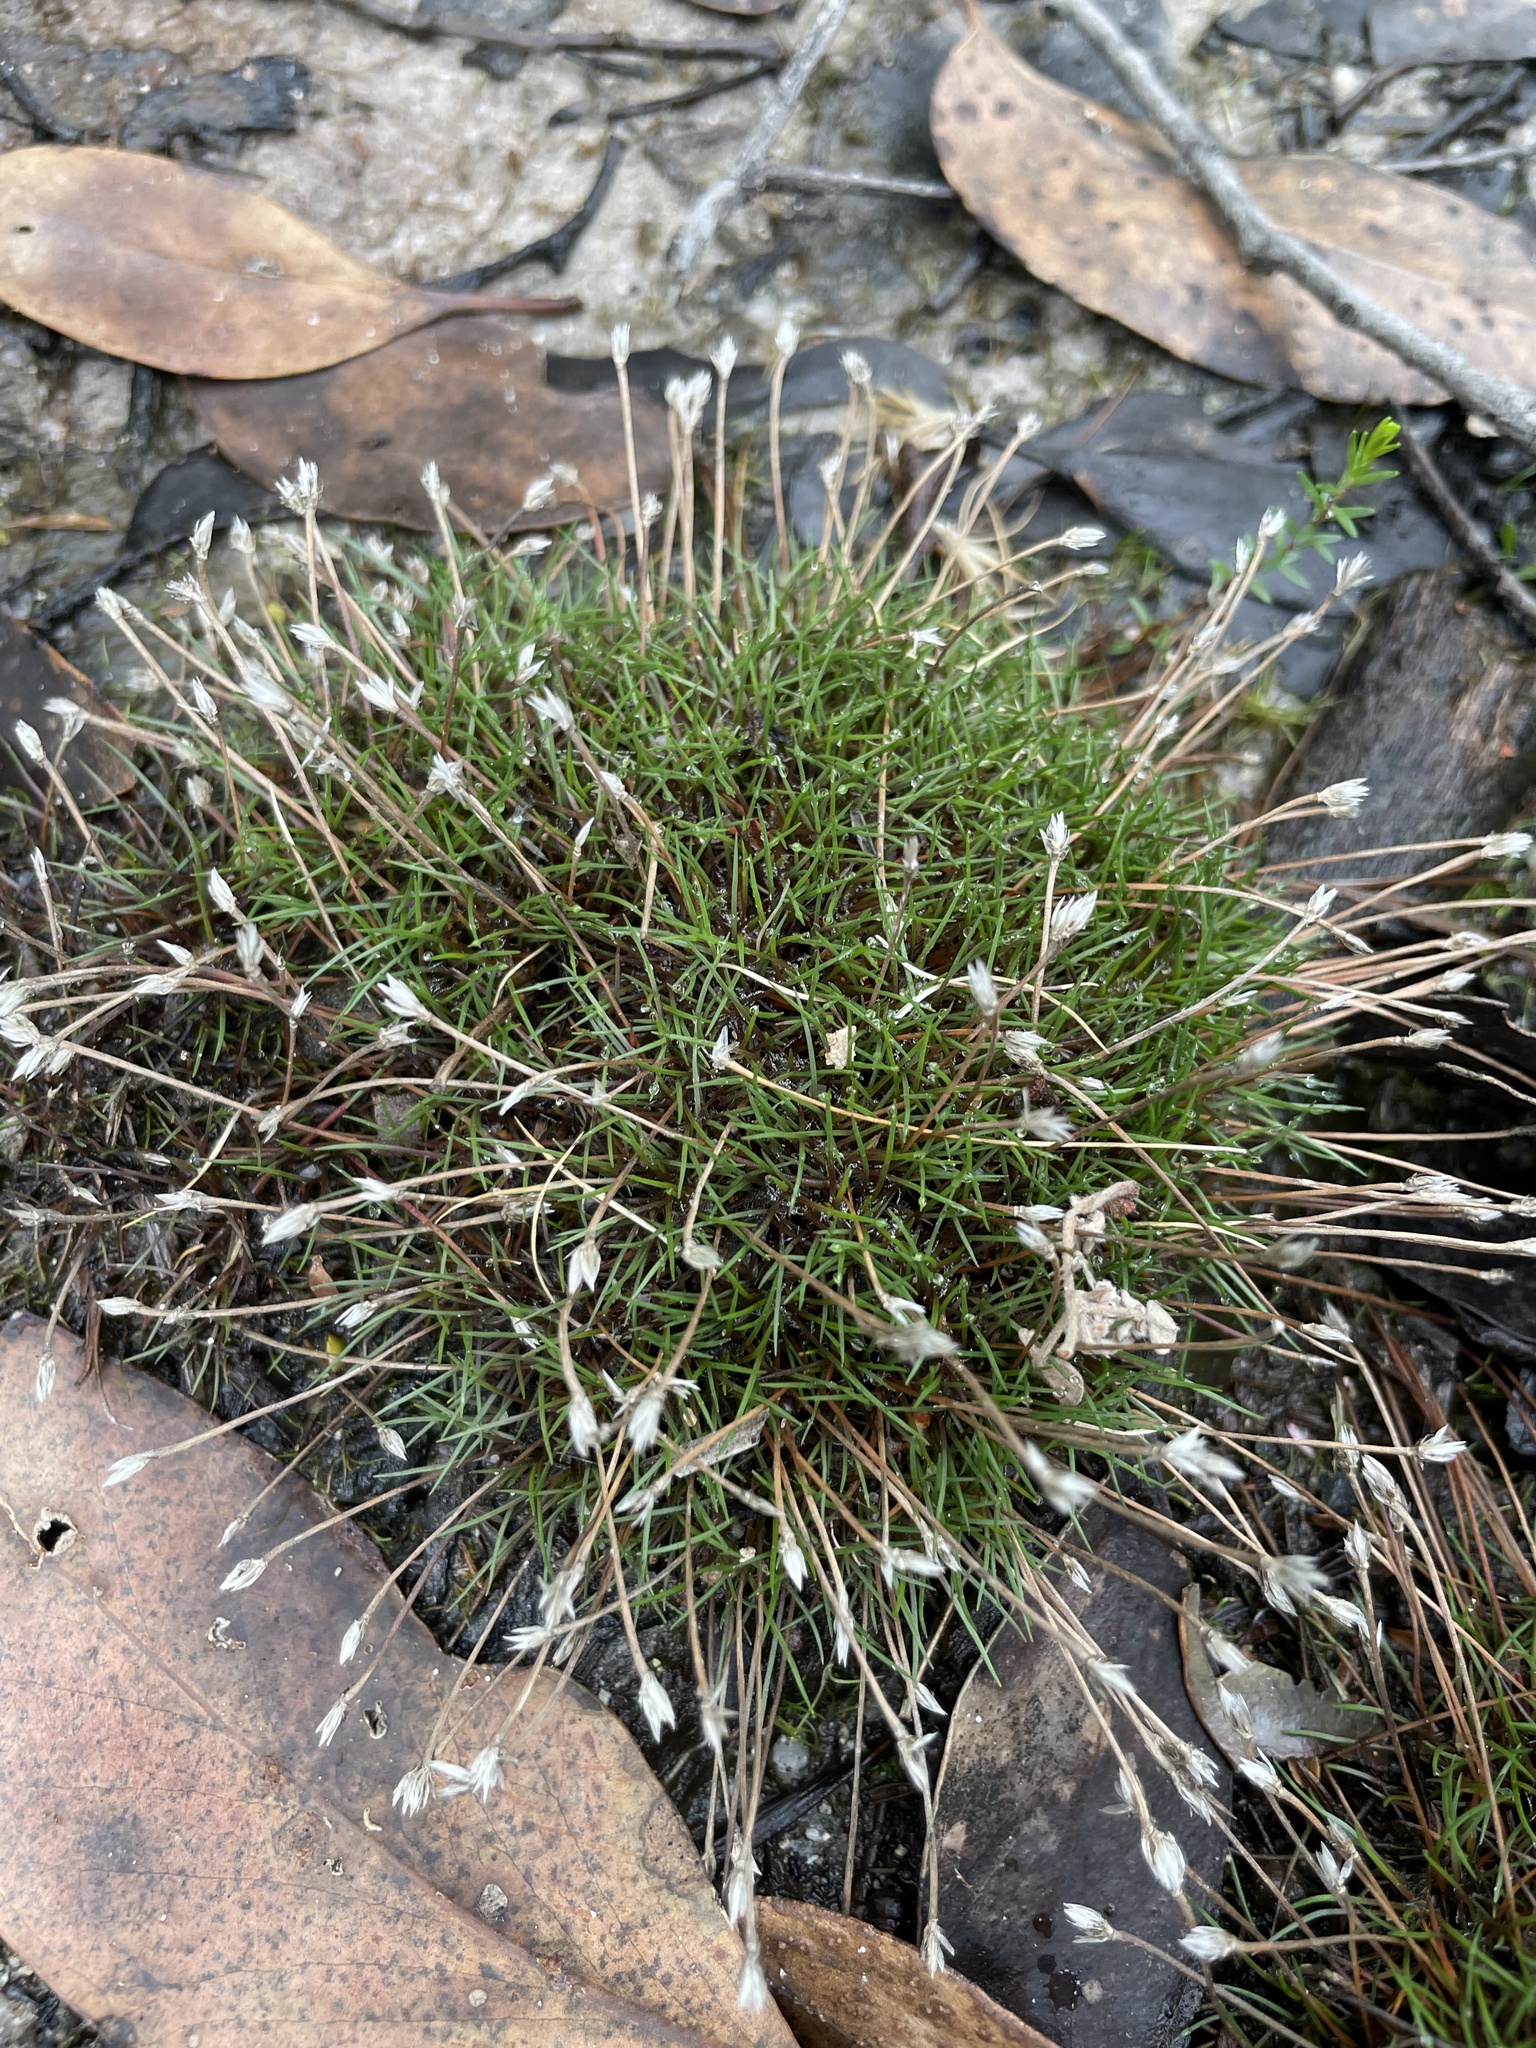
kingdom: Plantae
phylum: Tracheophyta
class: Liliopsida
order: Poales
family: Restionaceae
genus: Centrolepis
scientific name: Centrolepis fascicularis
